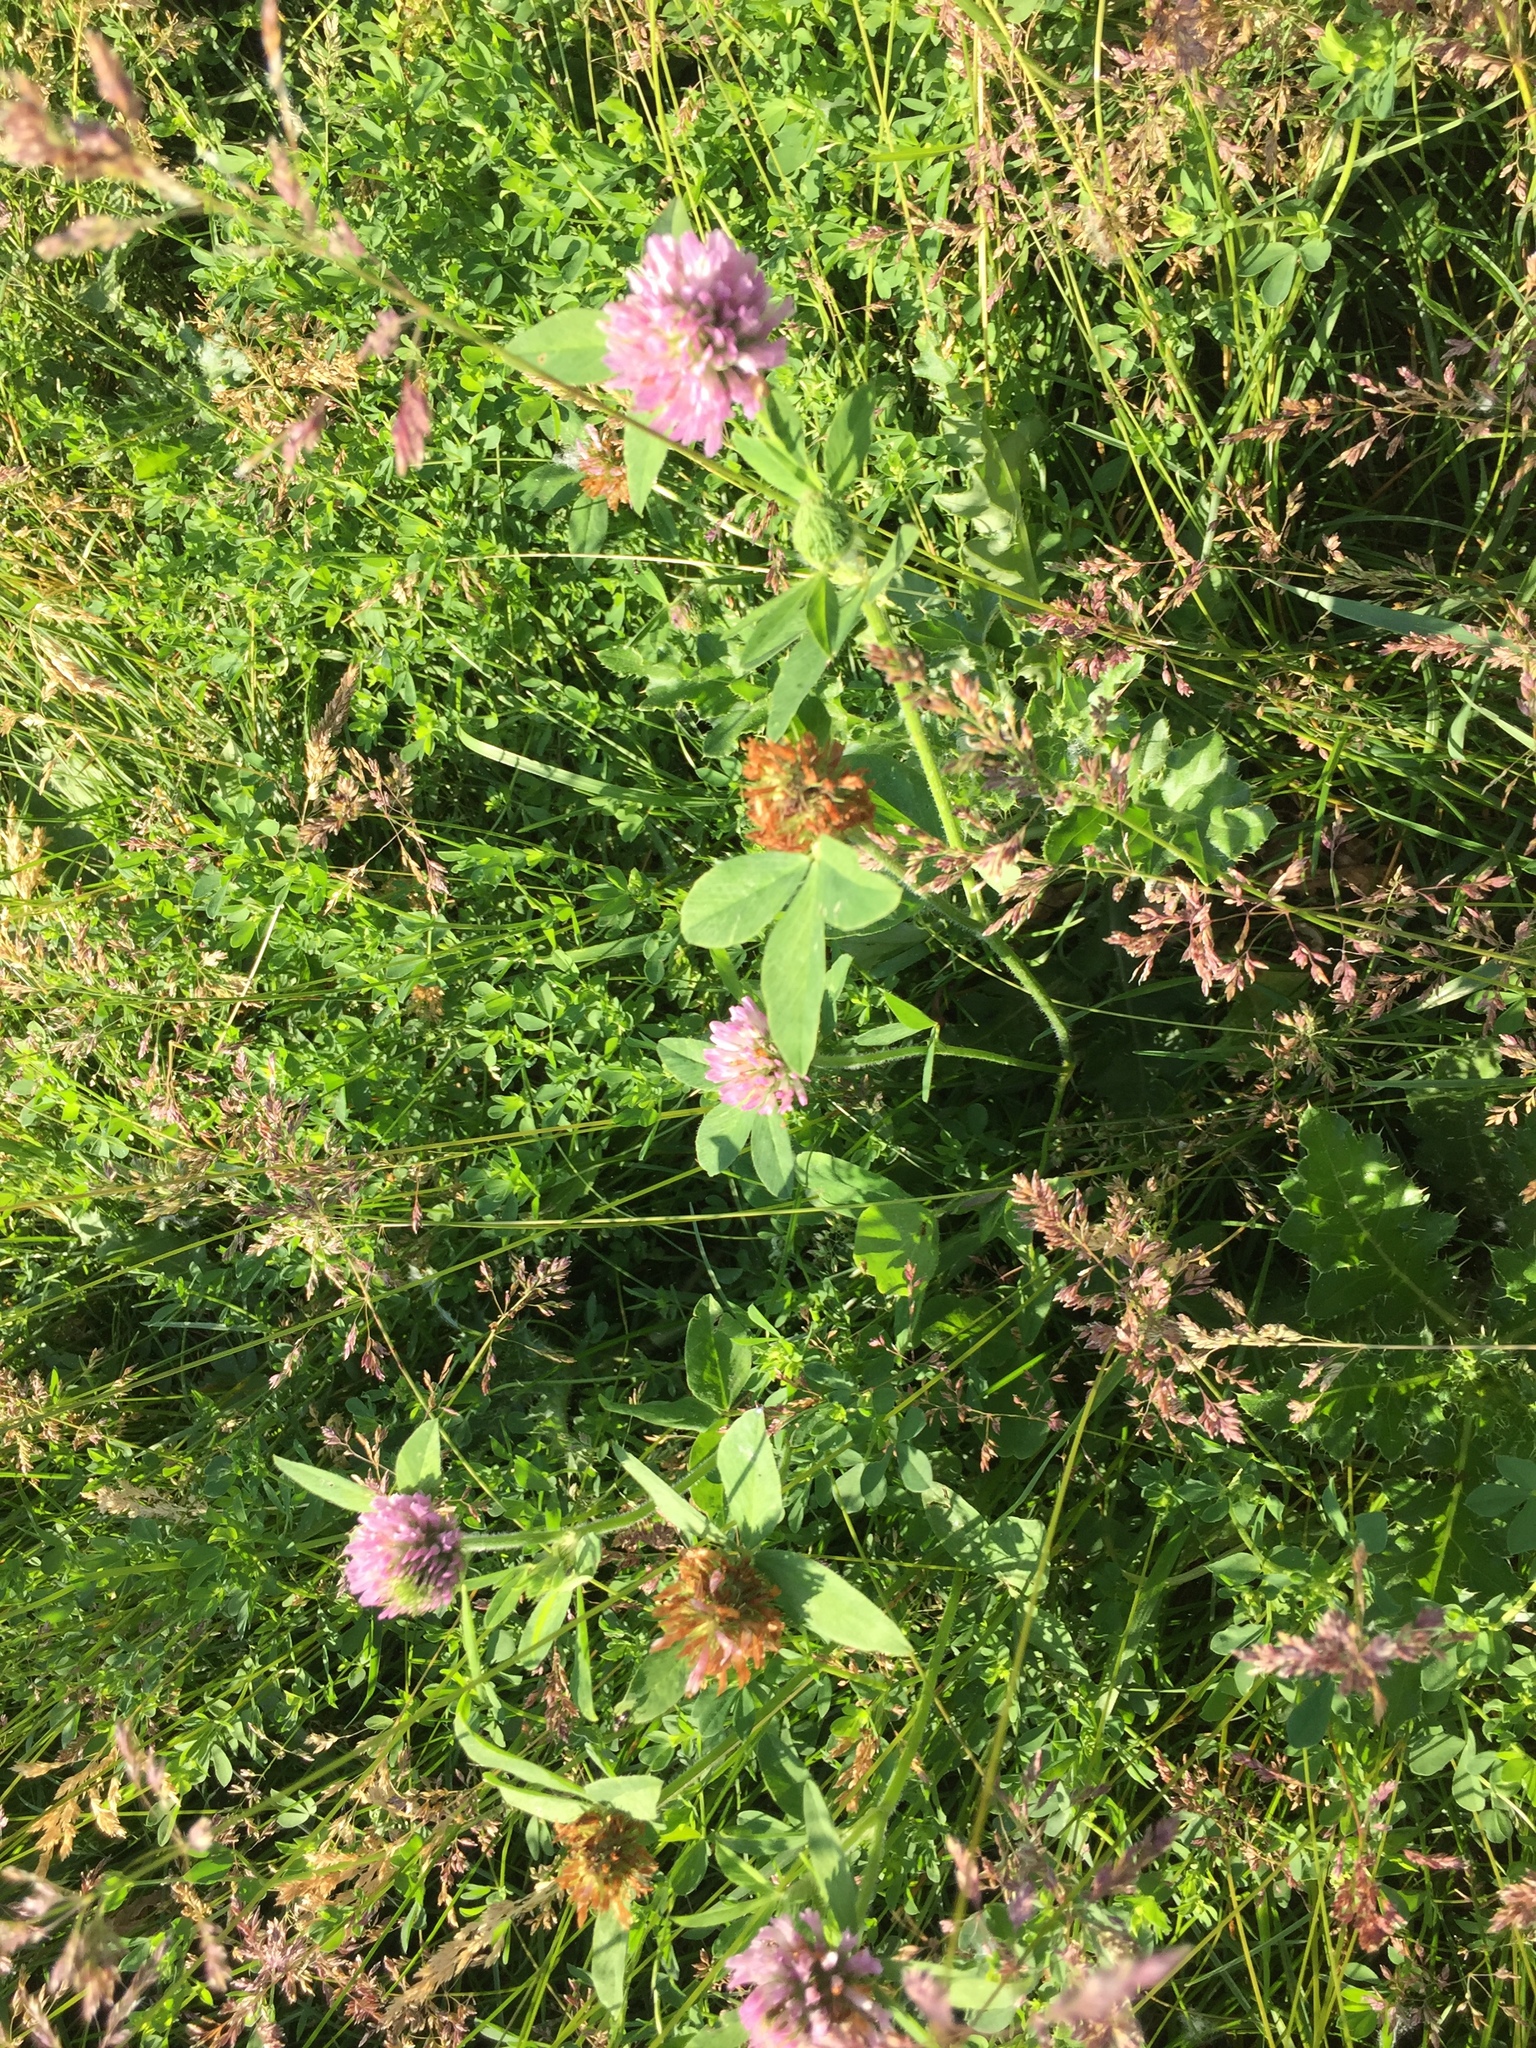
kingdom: Plantae
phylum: Tracheophyta
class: Magnoliopsida
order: Fabales
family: Fabaceae
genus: Trifolium
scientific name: Trifolium pratense
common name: Red clover
